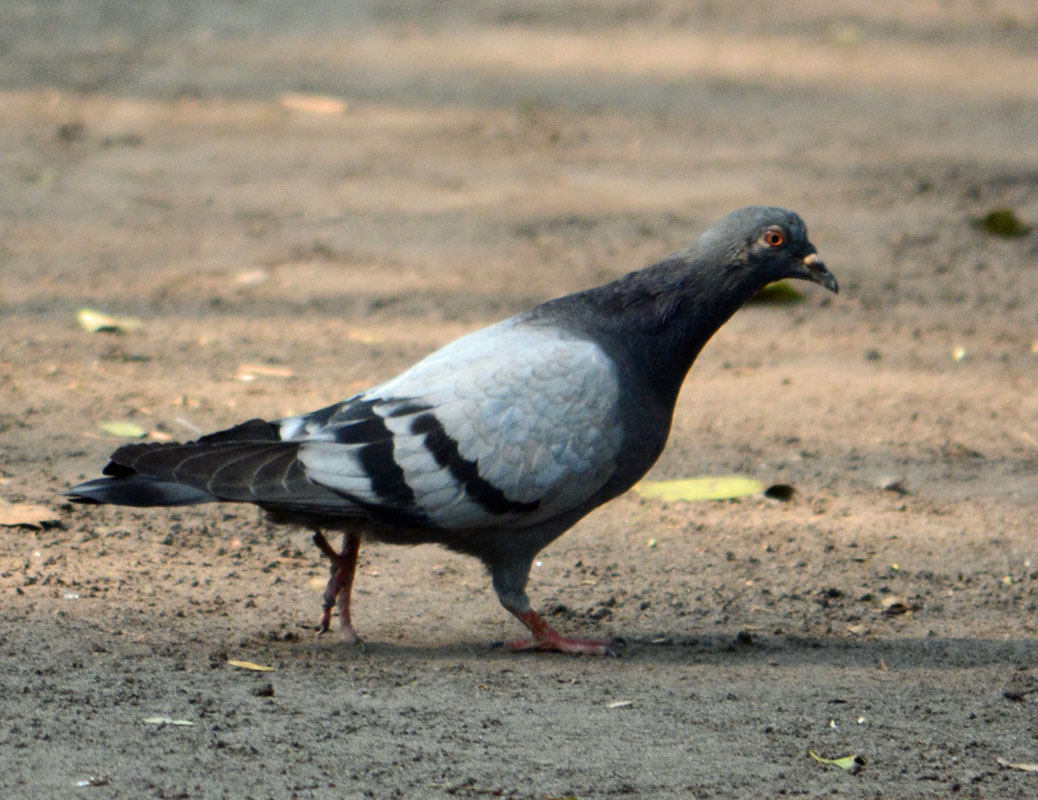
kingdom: Animalia
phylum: Chordata
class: Aves
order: Columbiformes
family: Columbidae
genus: Columba
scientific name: Columba livia
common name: Rock pigeon
